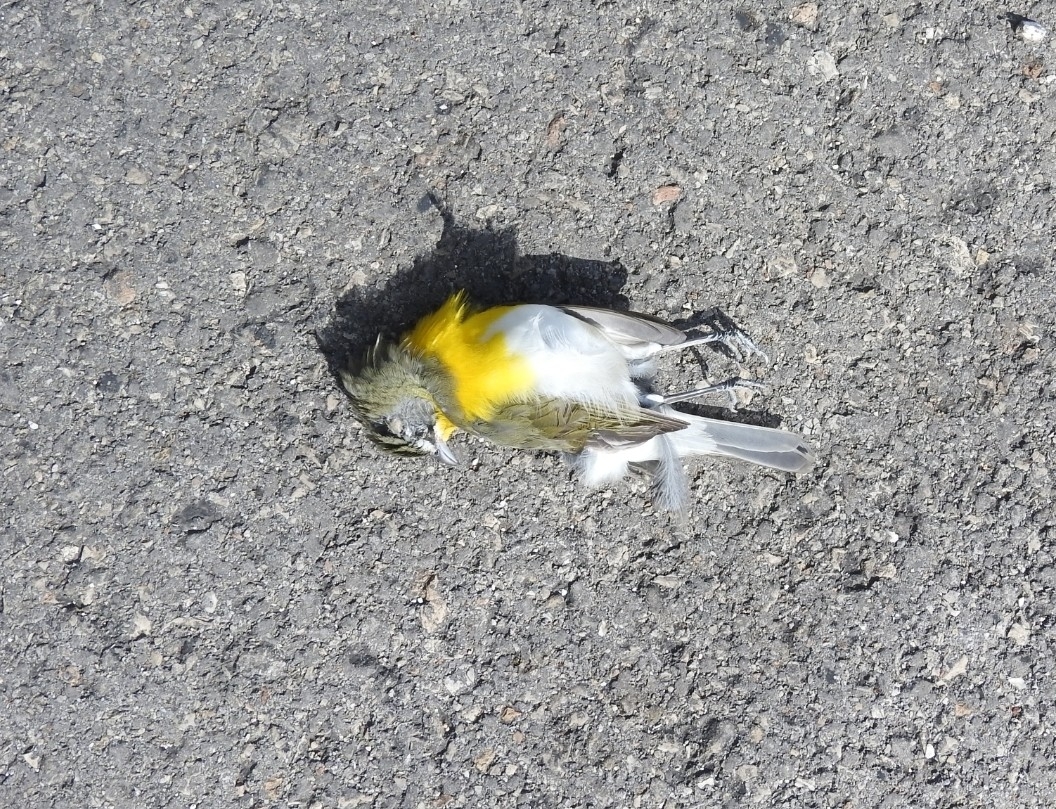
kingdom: Animalia
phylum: Chordata
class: Aves
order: Passeriformes
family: Parulidae
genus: Icteria
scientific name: Icteria virens
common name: Yellow-breasted chat
